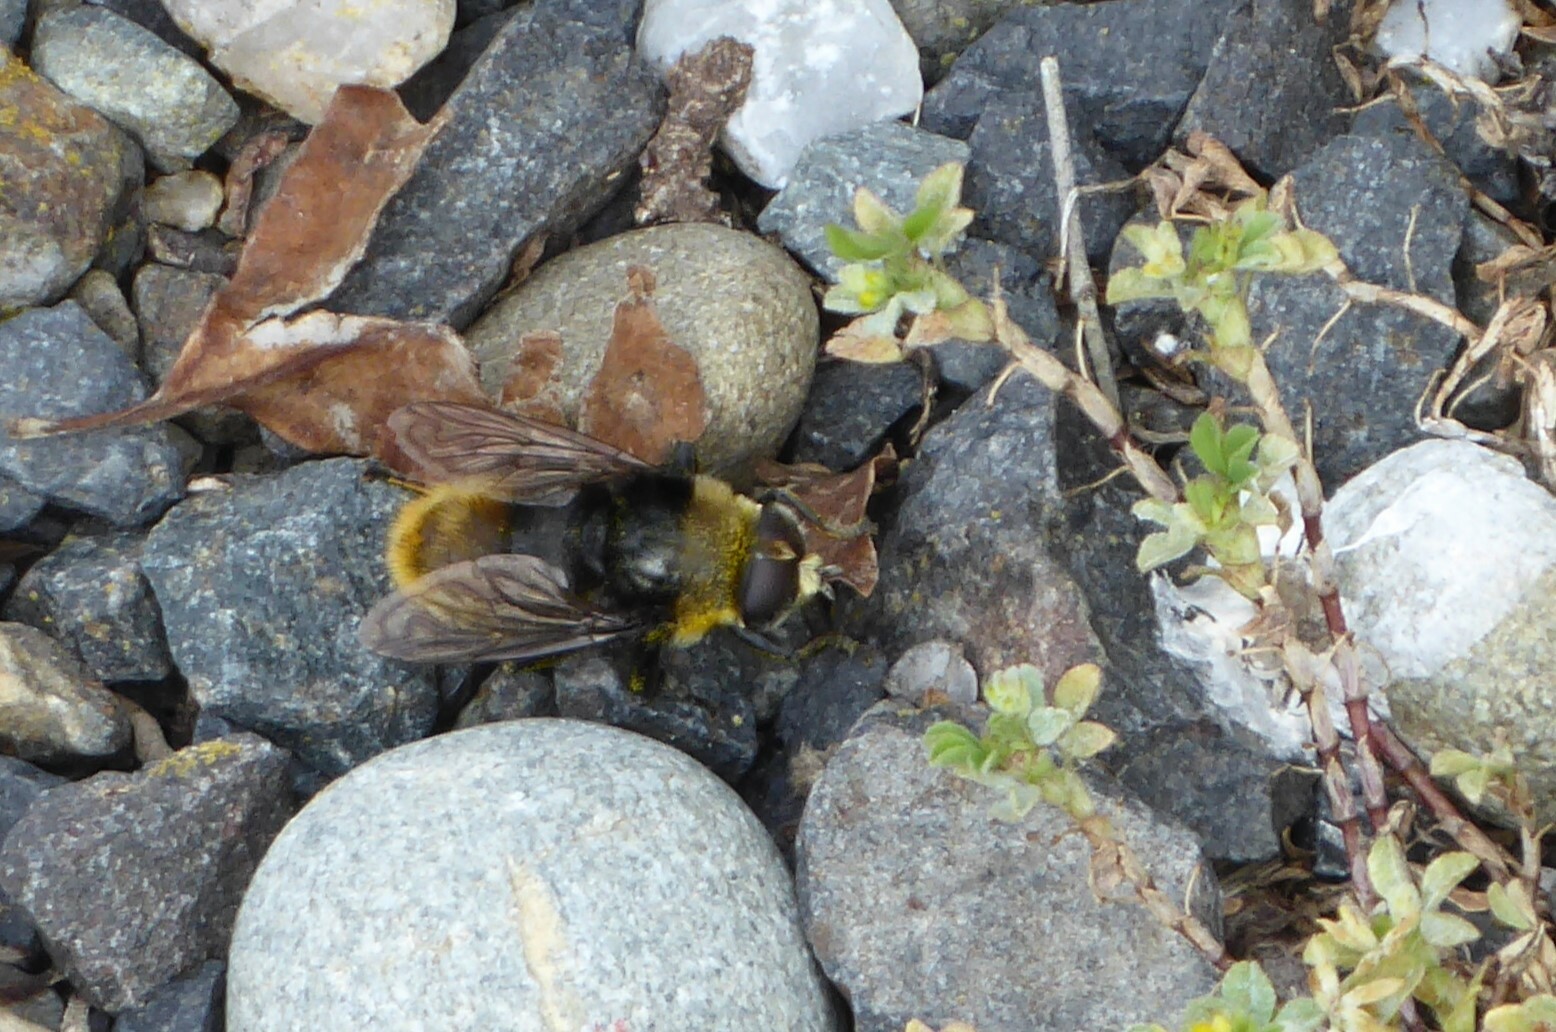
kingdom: Animalia
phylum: Arthropoda
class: Insecta
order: Diptera
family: Syrphidae
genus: Merodon
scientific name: Merodon equestris
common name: Greater bulb-fly
